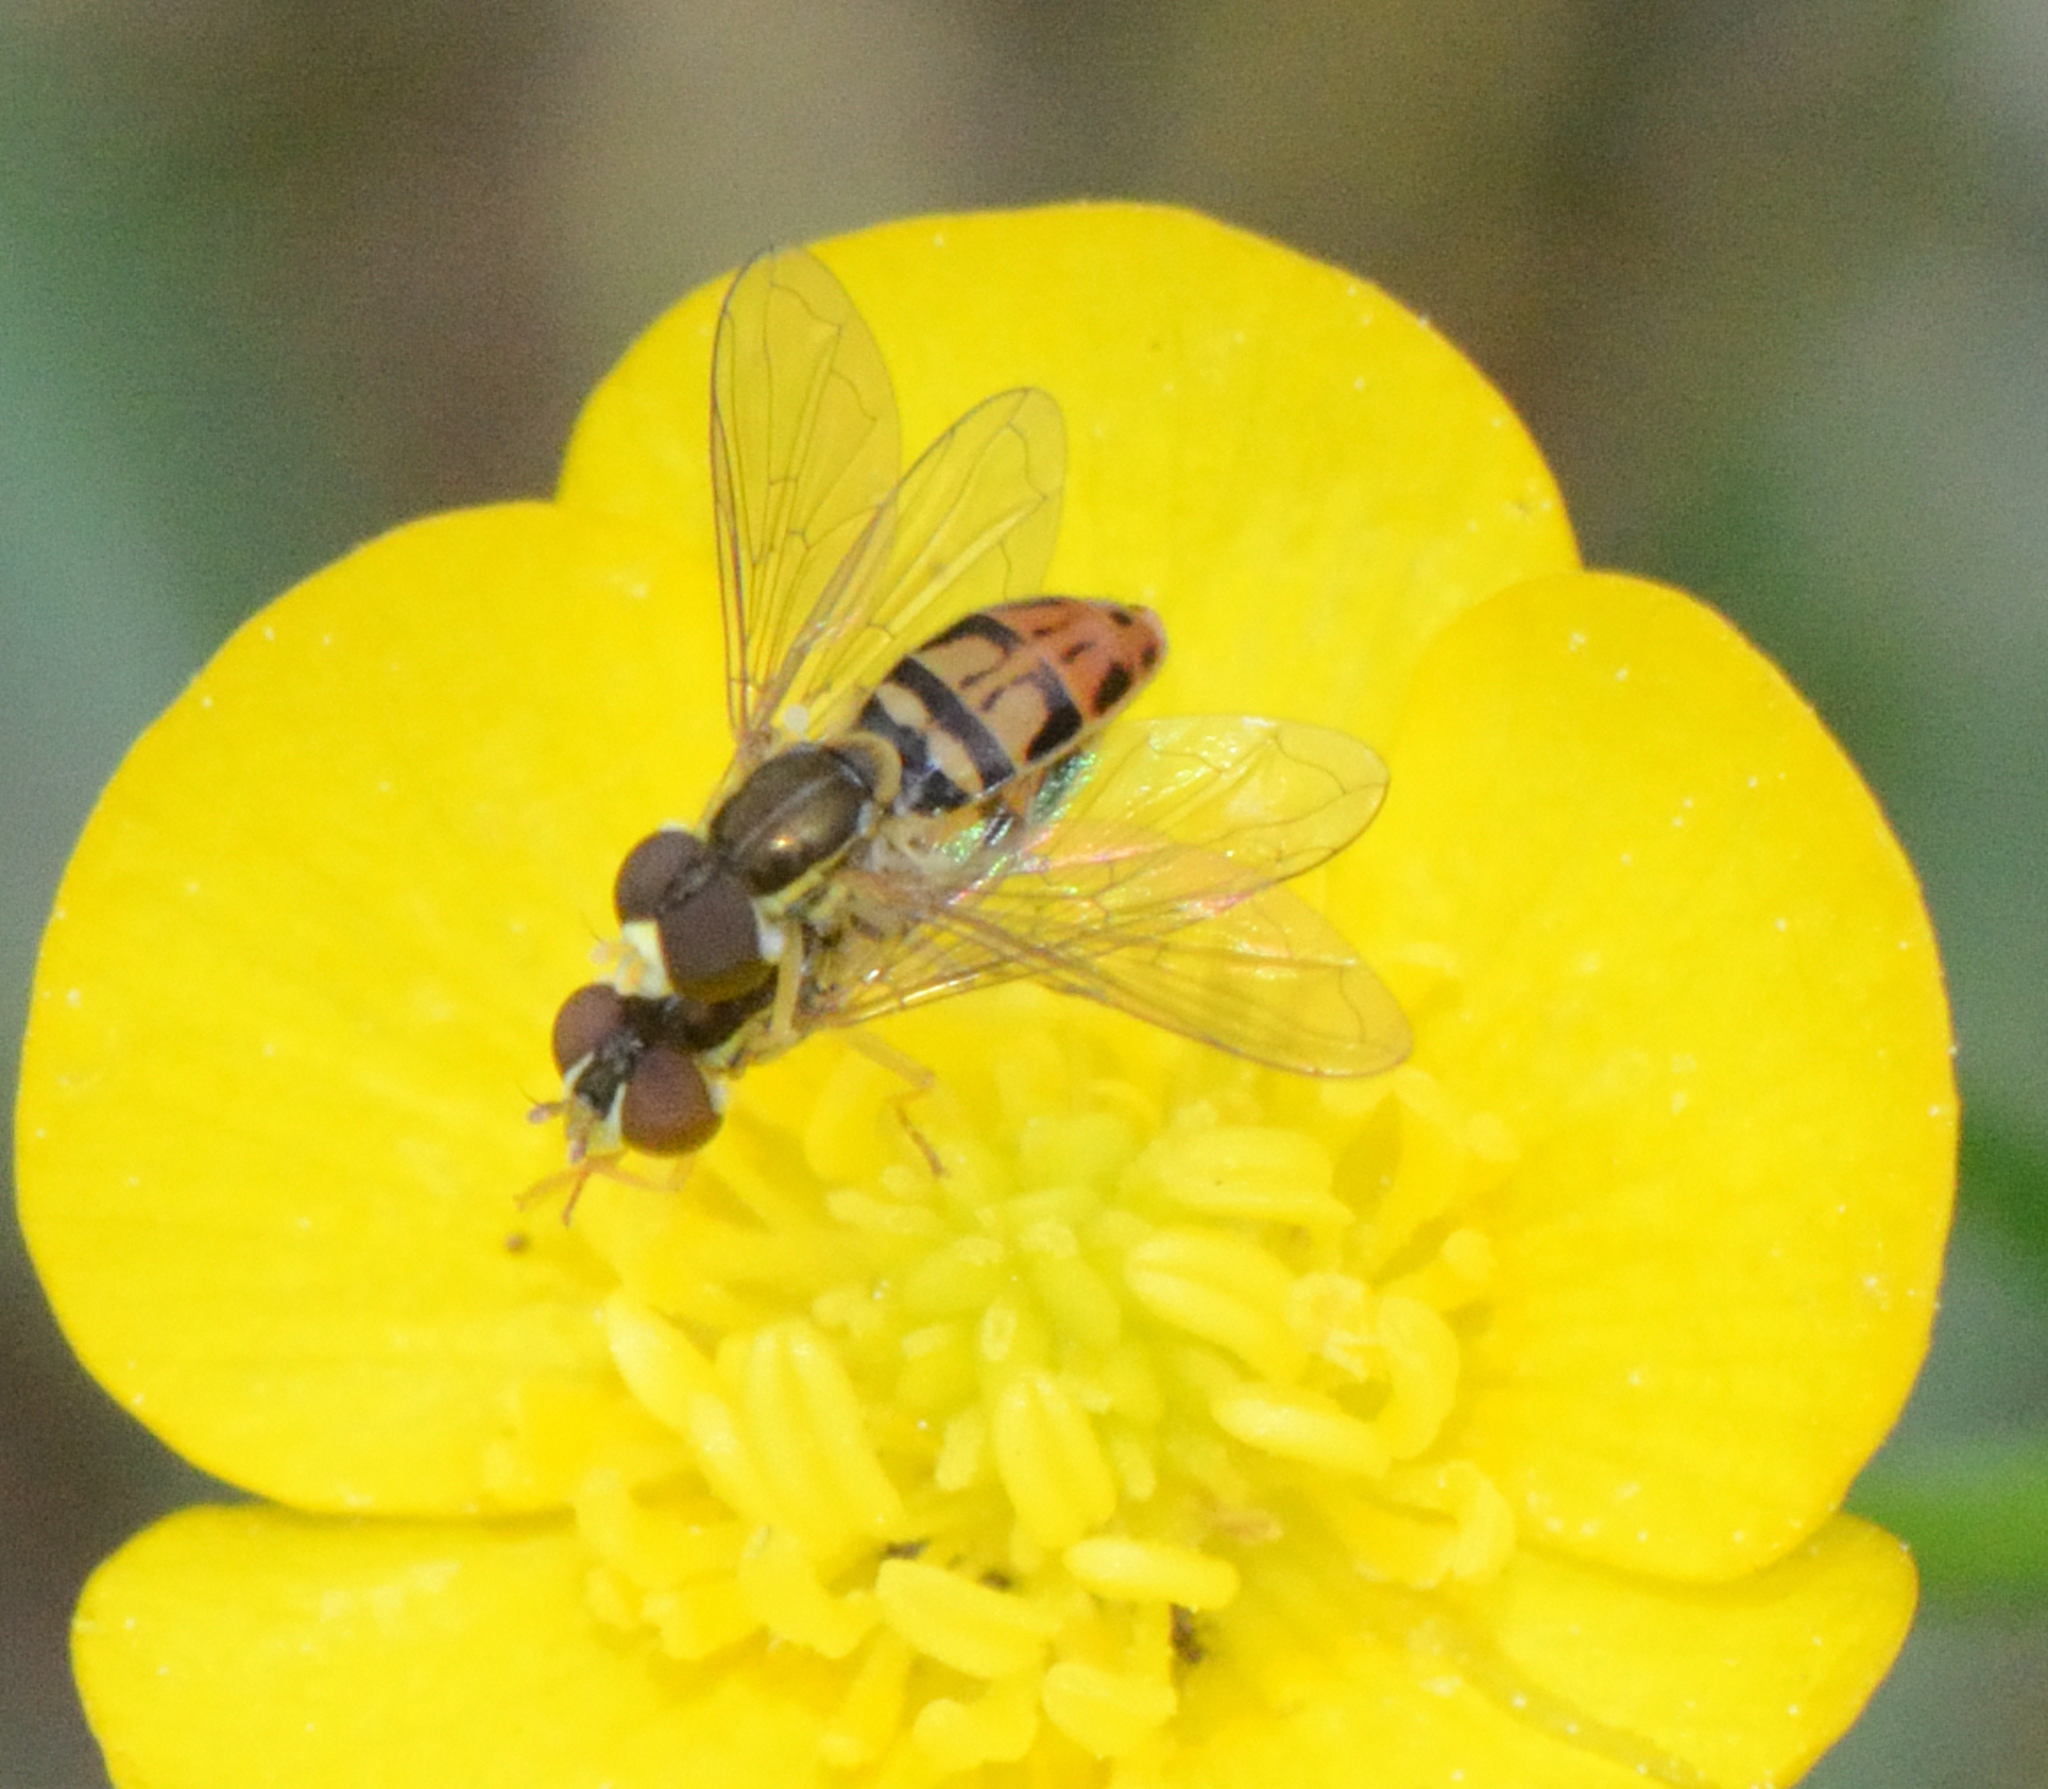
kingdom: Animalia
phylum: Arthropoda
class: Insecta
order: Diptera
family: Syrphidae
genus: Toxomerus
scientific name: Toxomerus marginatus
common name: Syrphid fly
